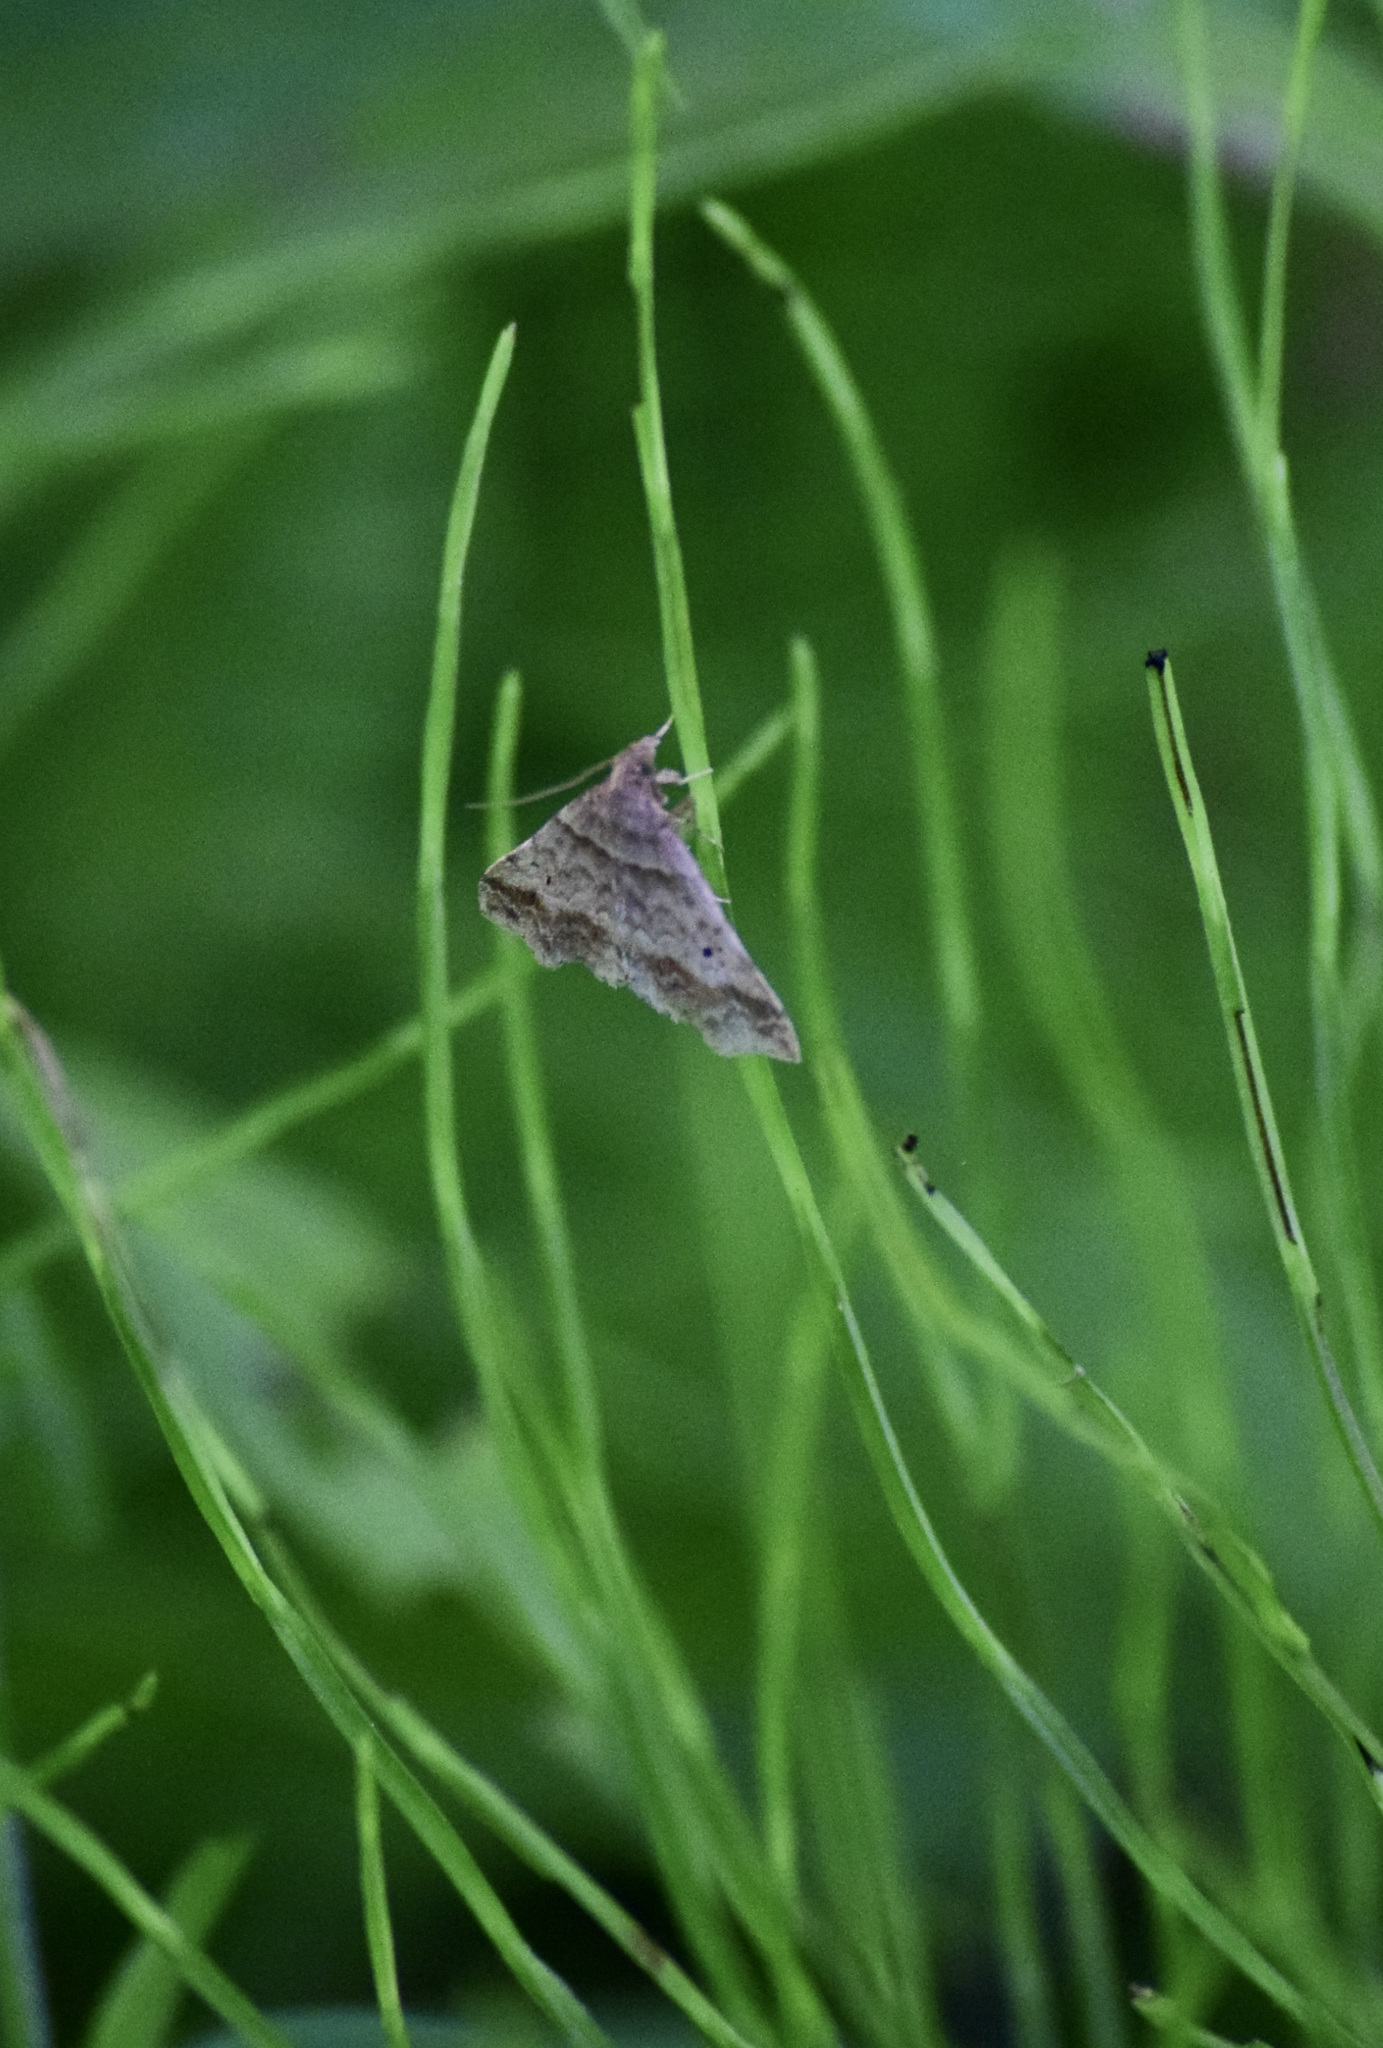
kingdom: Animalia
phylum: Arthropoda
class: Insecta
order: Lepidoptera
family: Erebidae
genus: Phaeolita
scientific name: Phaeolita pyramusalis
